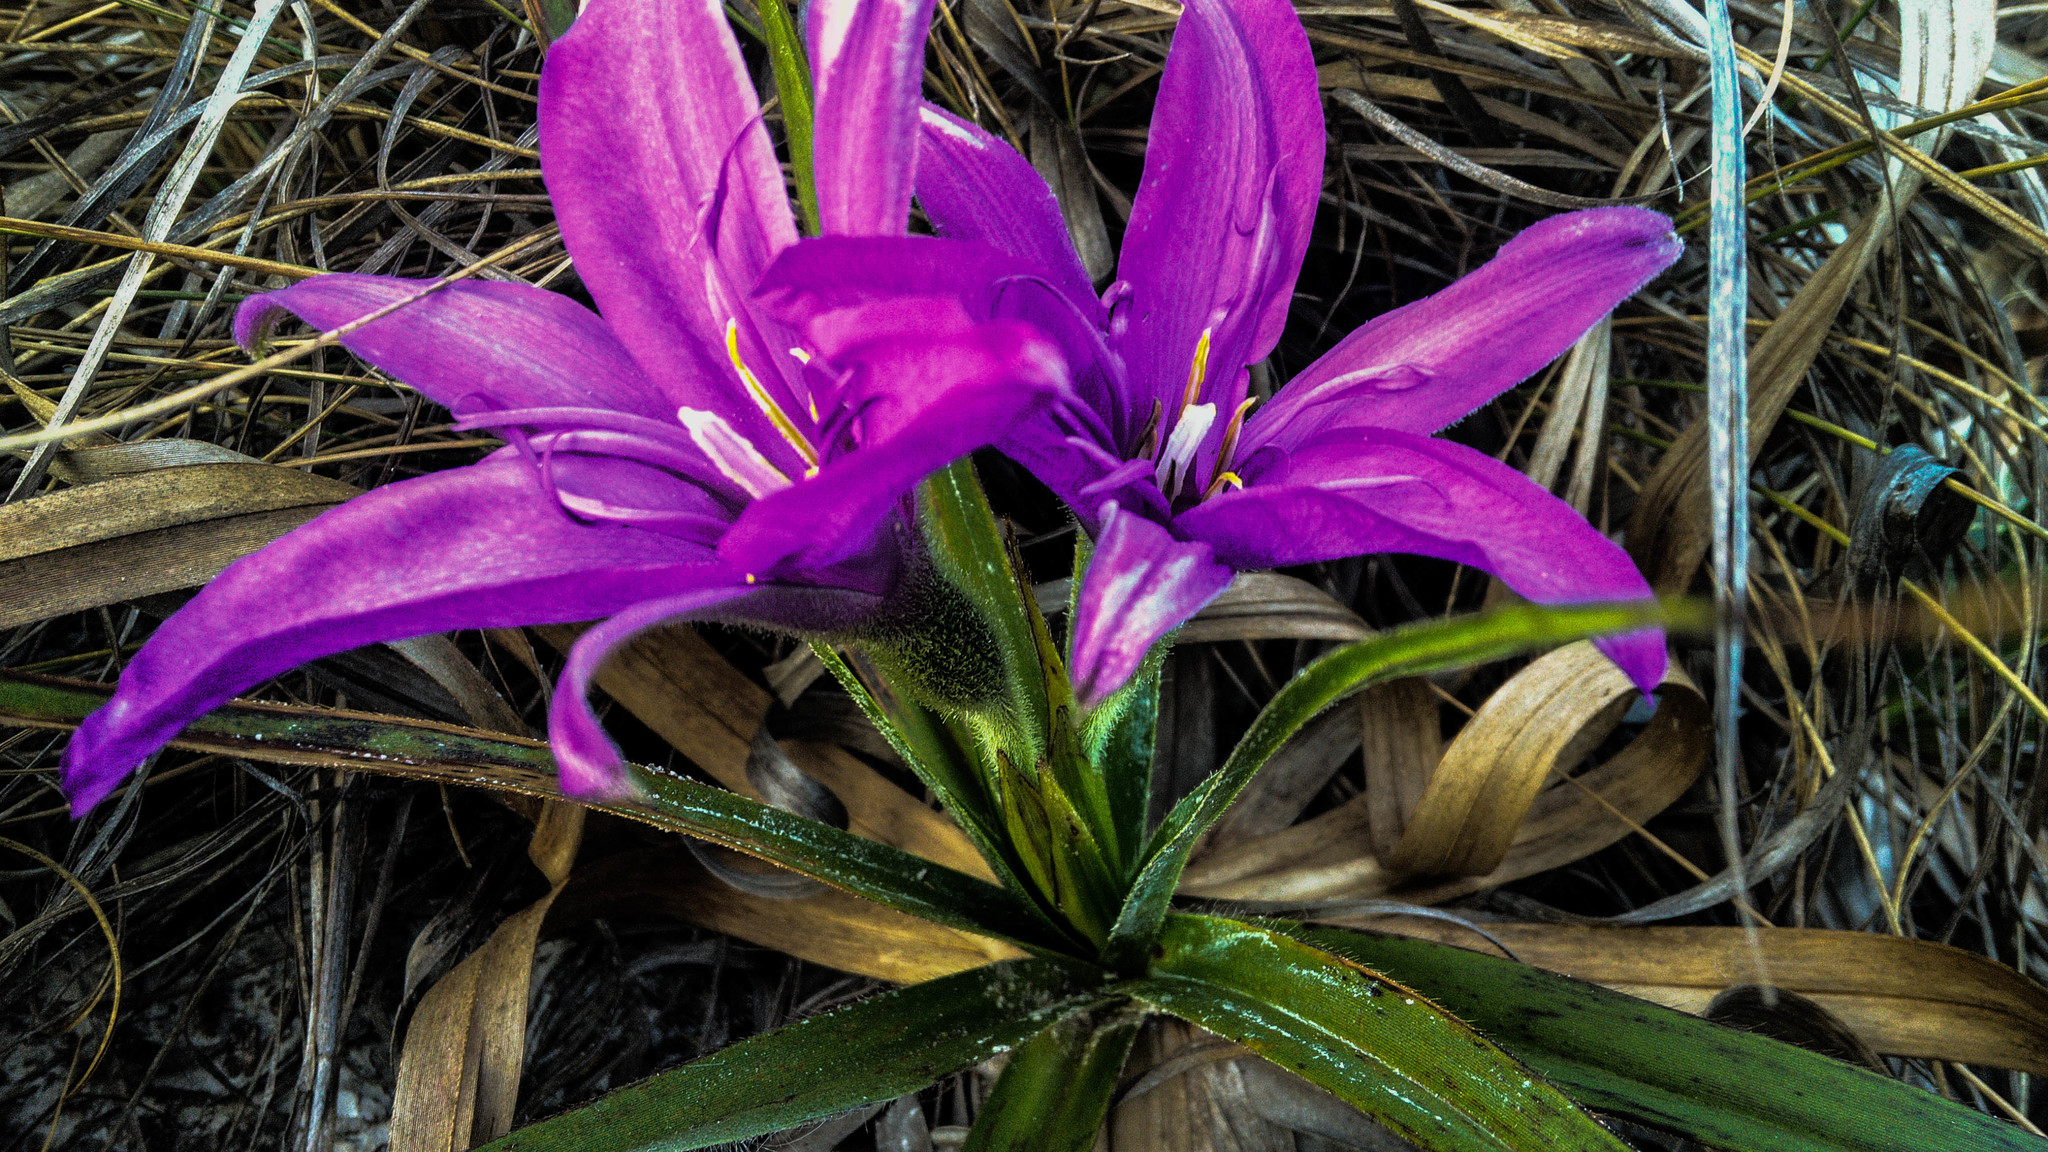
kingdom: Plantae
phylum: Tracheophyta
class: Liliopsida
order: Pandanales
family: Velloziaceae
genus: Barbacenia
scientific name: Barbacenia fulva
